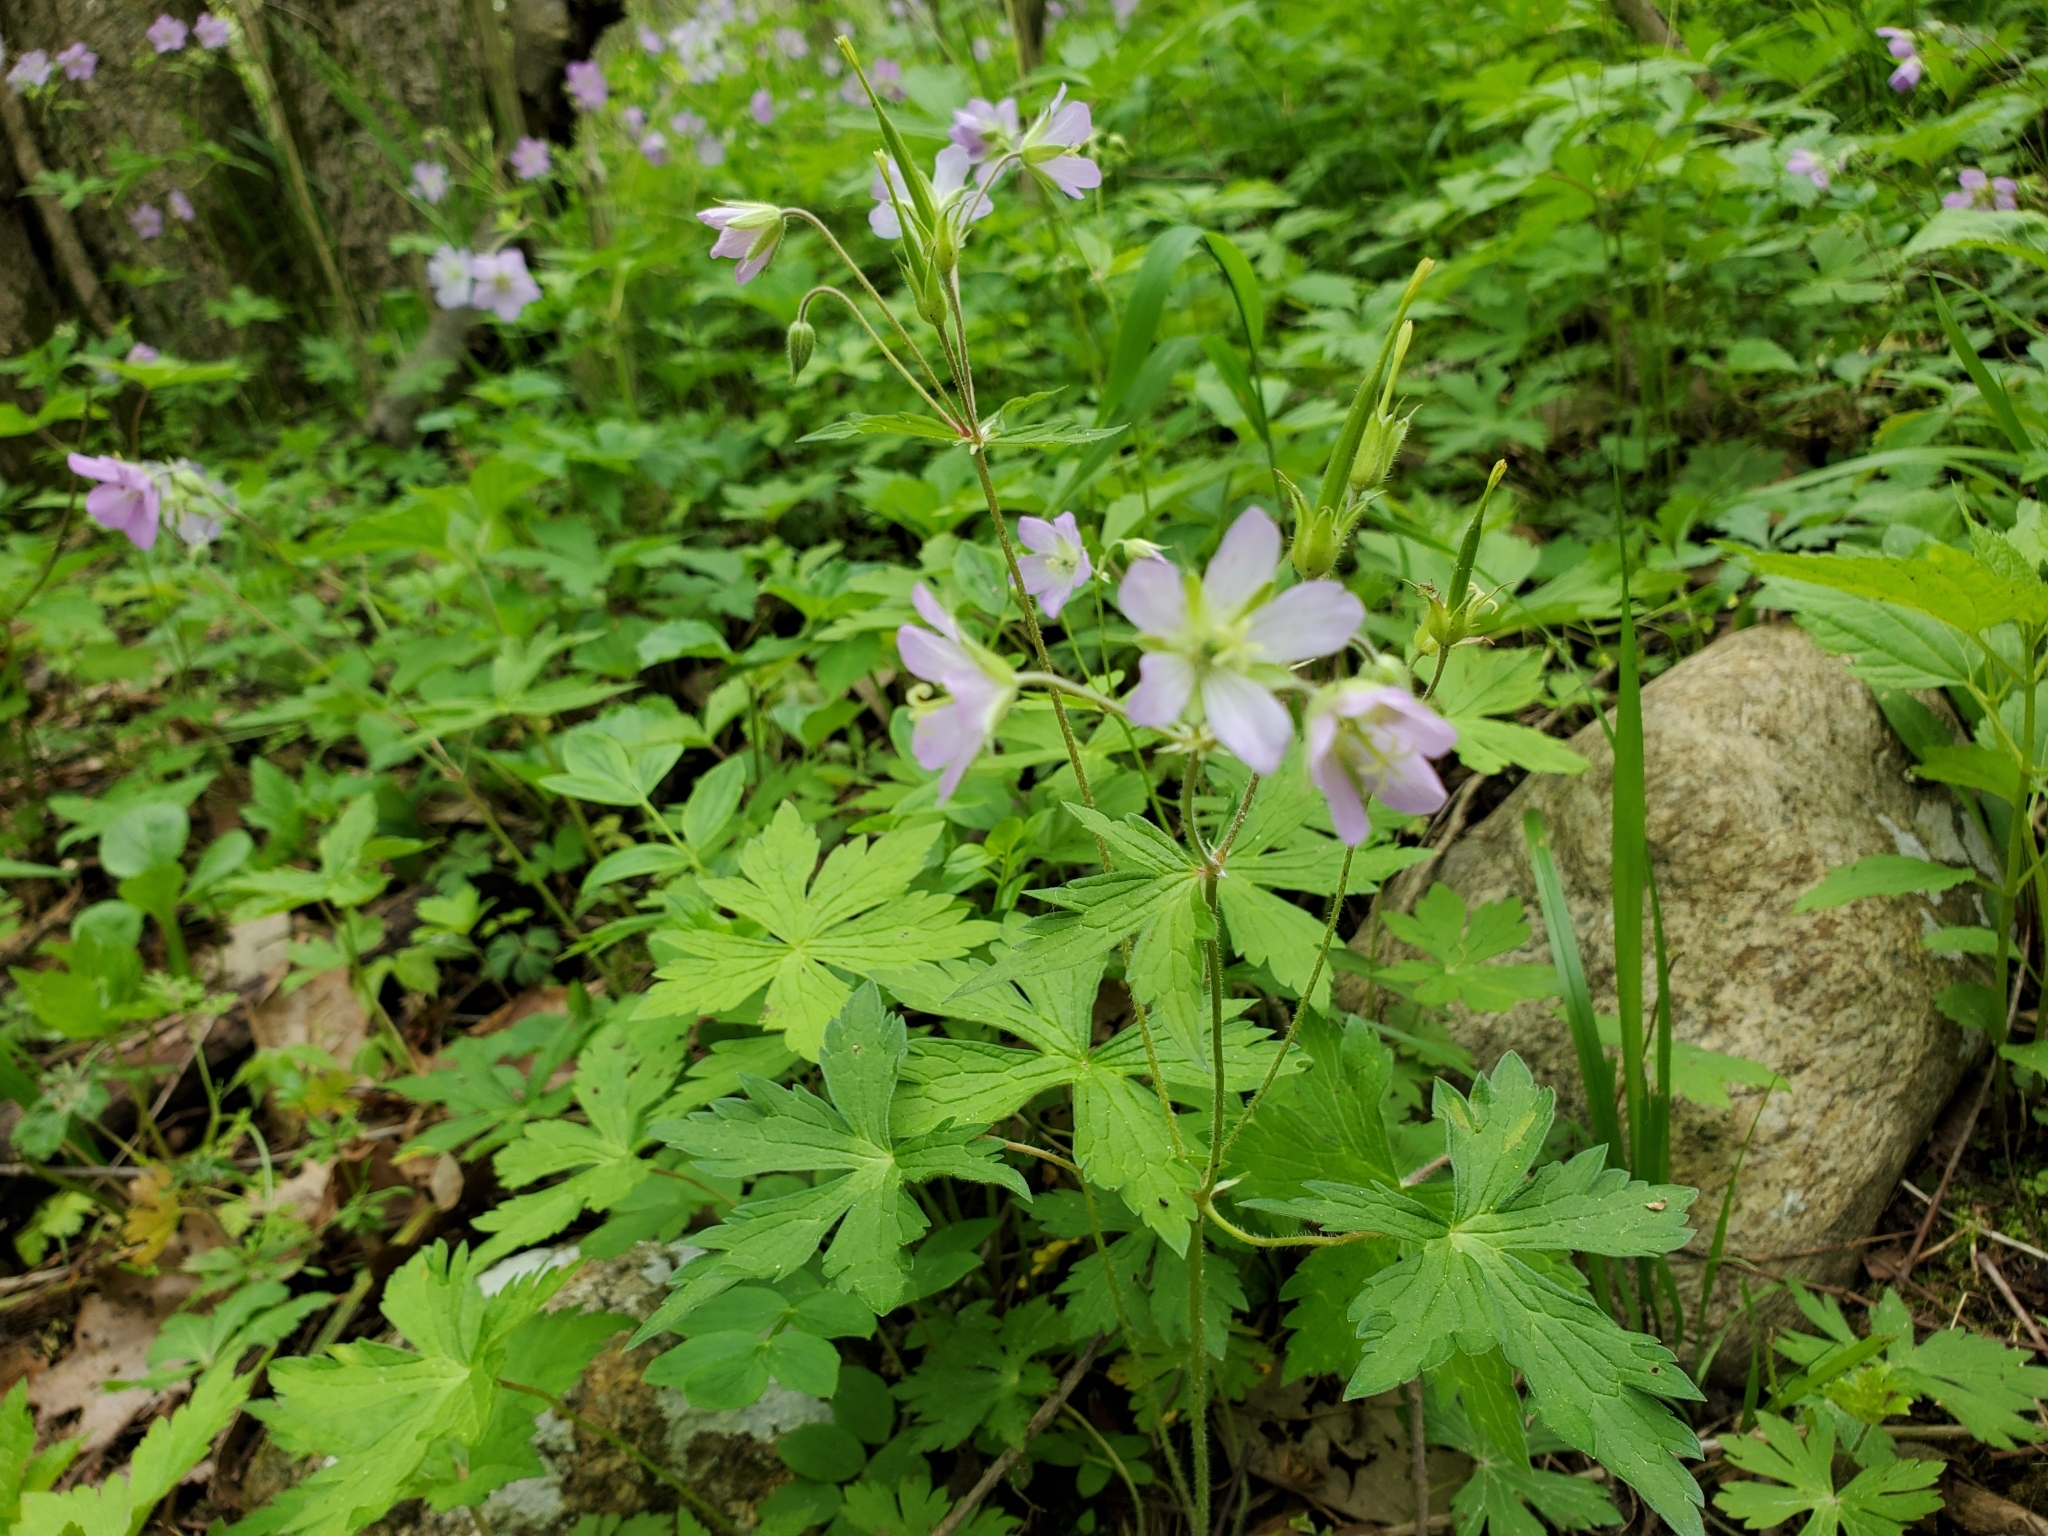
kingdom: Plantae
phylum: Tracheophyta
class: Magnoliopsida
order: Geraniales
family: Geraniaceae
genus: Geranium
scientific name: Geranium maculatum
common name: Spotted geranium
